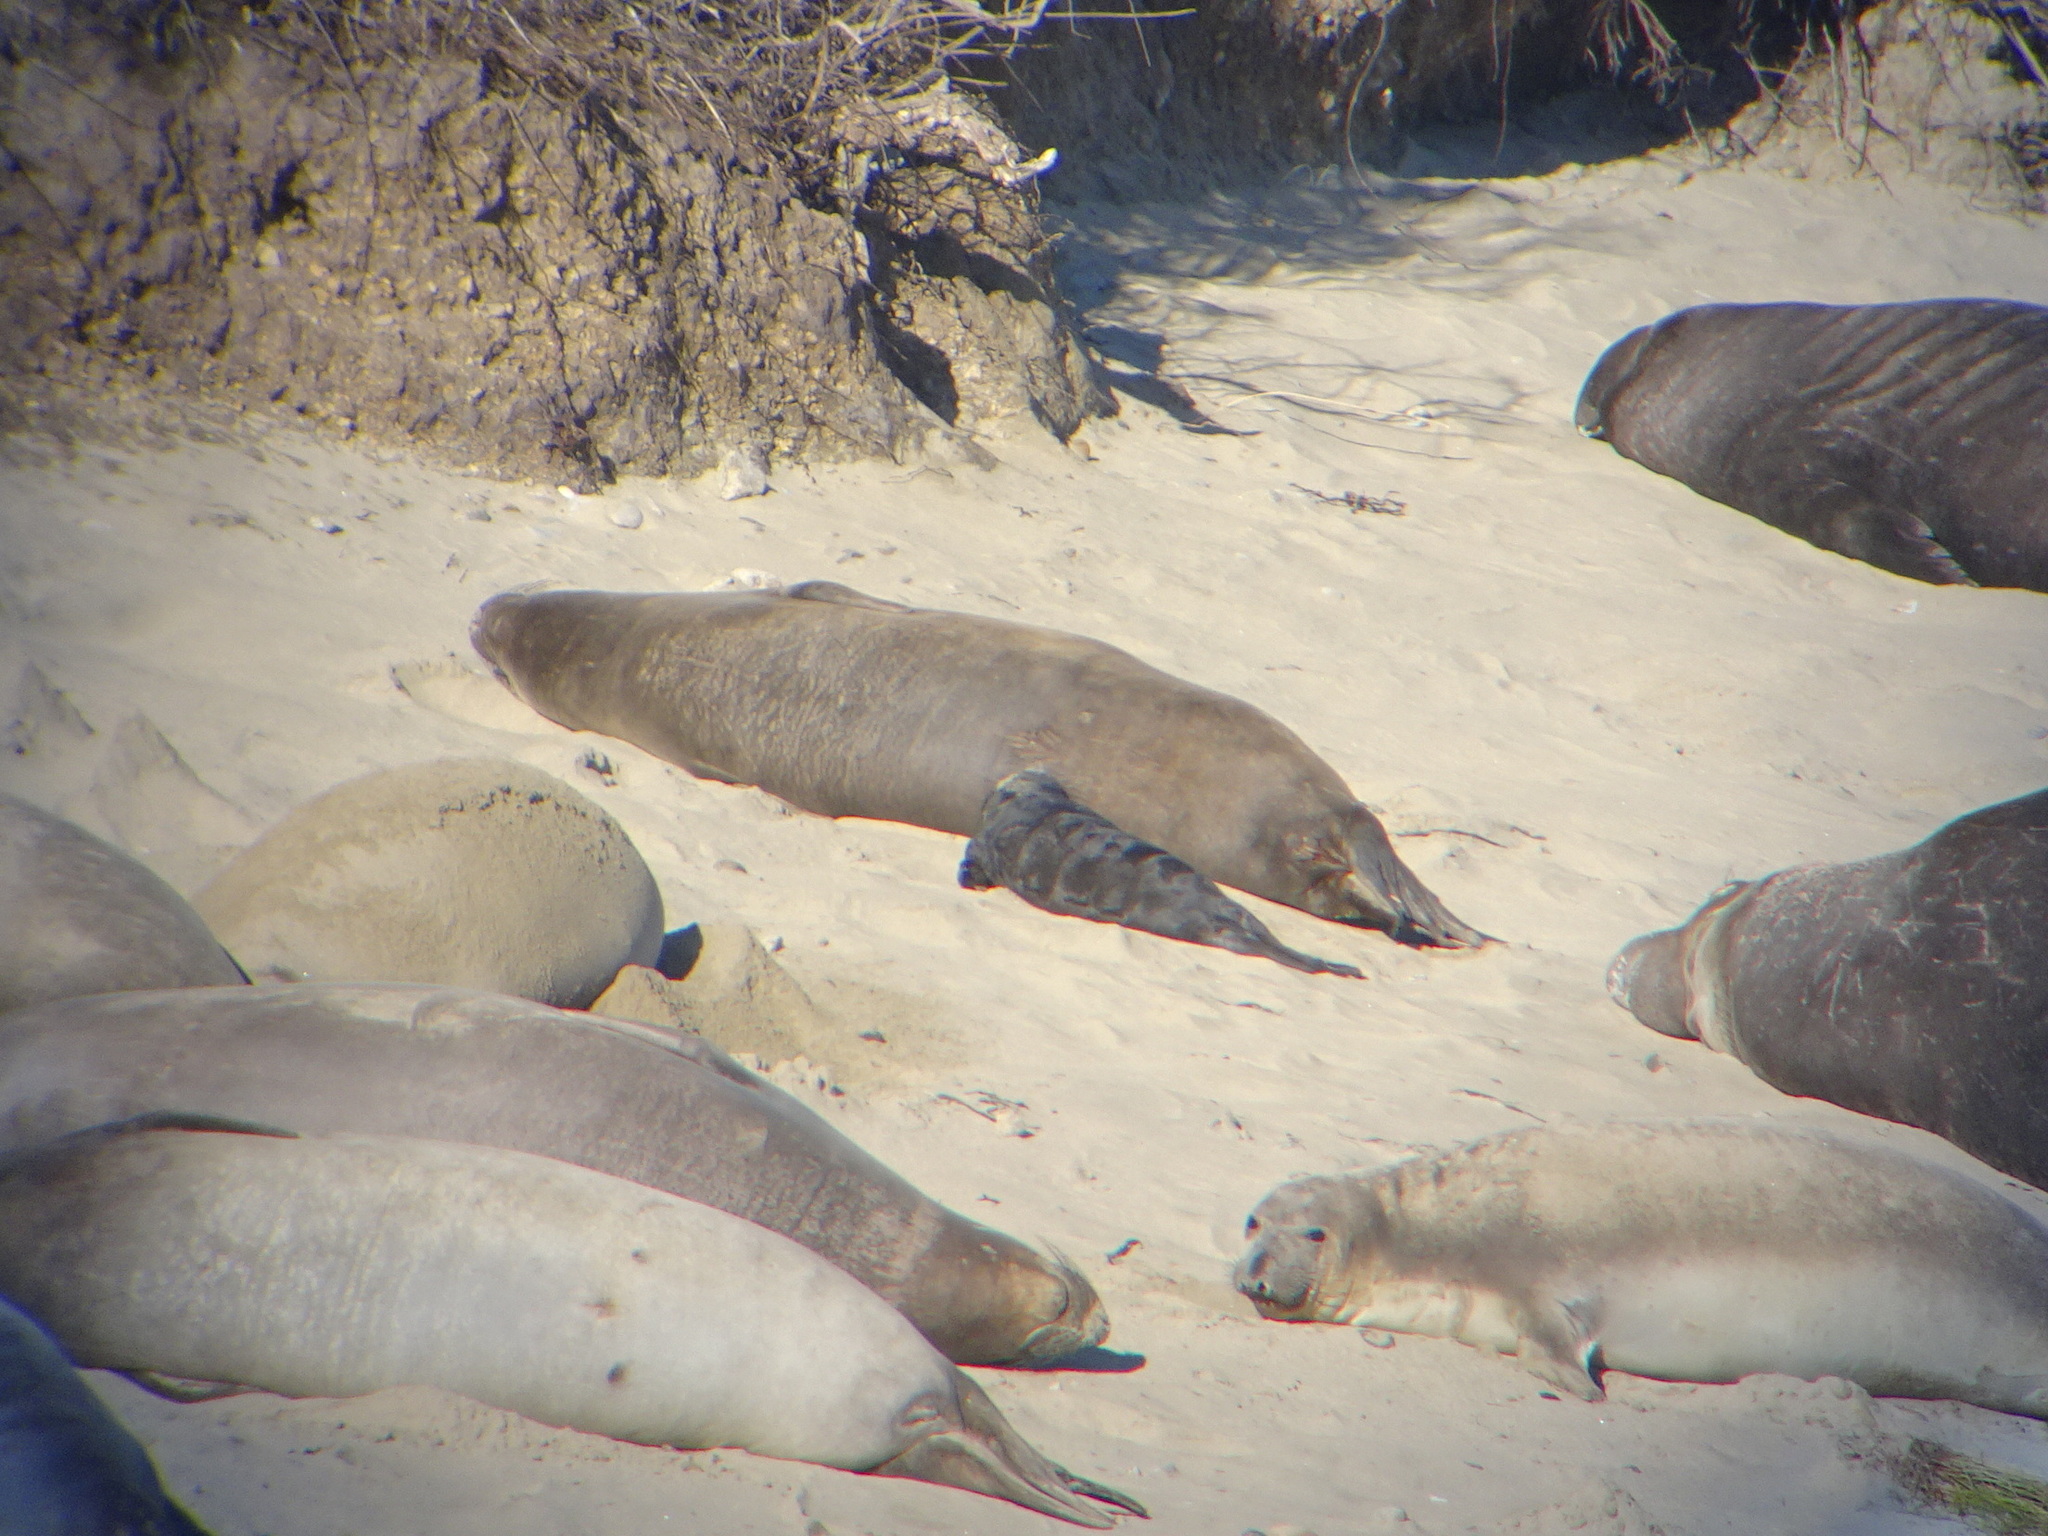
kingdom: Animalia
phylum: Chordata
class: Mammalia
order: Carnivora
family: Phocidae
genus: Mirounga
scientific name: Mirounga angustirostris
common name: Northern elephant seal
